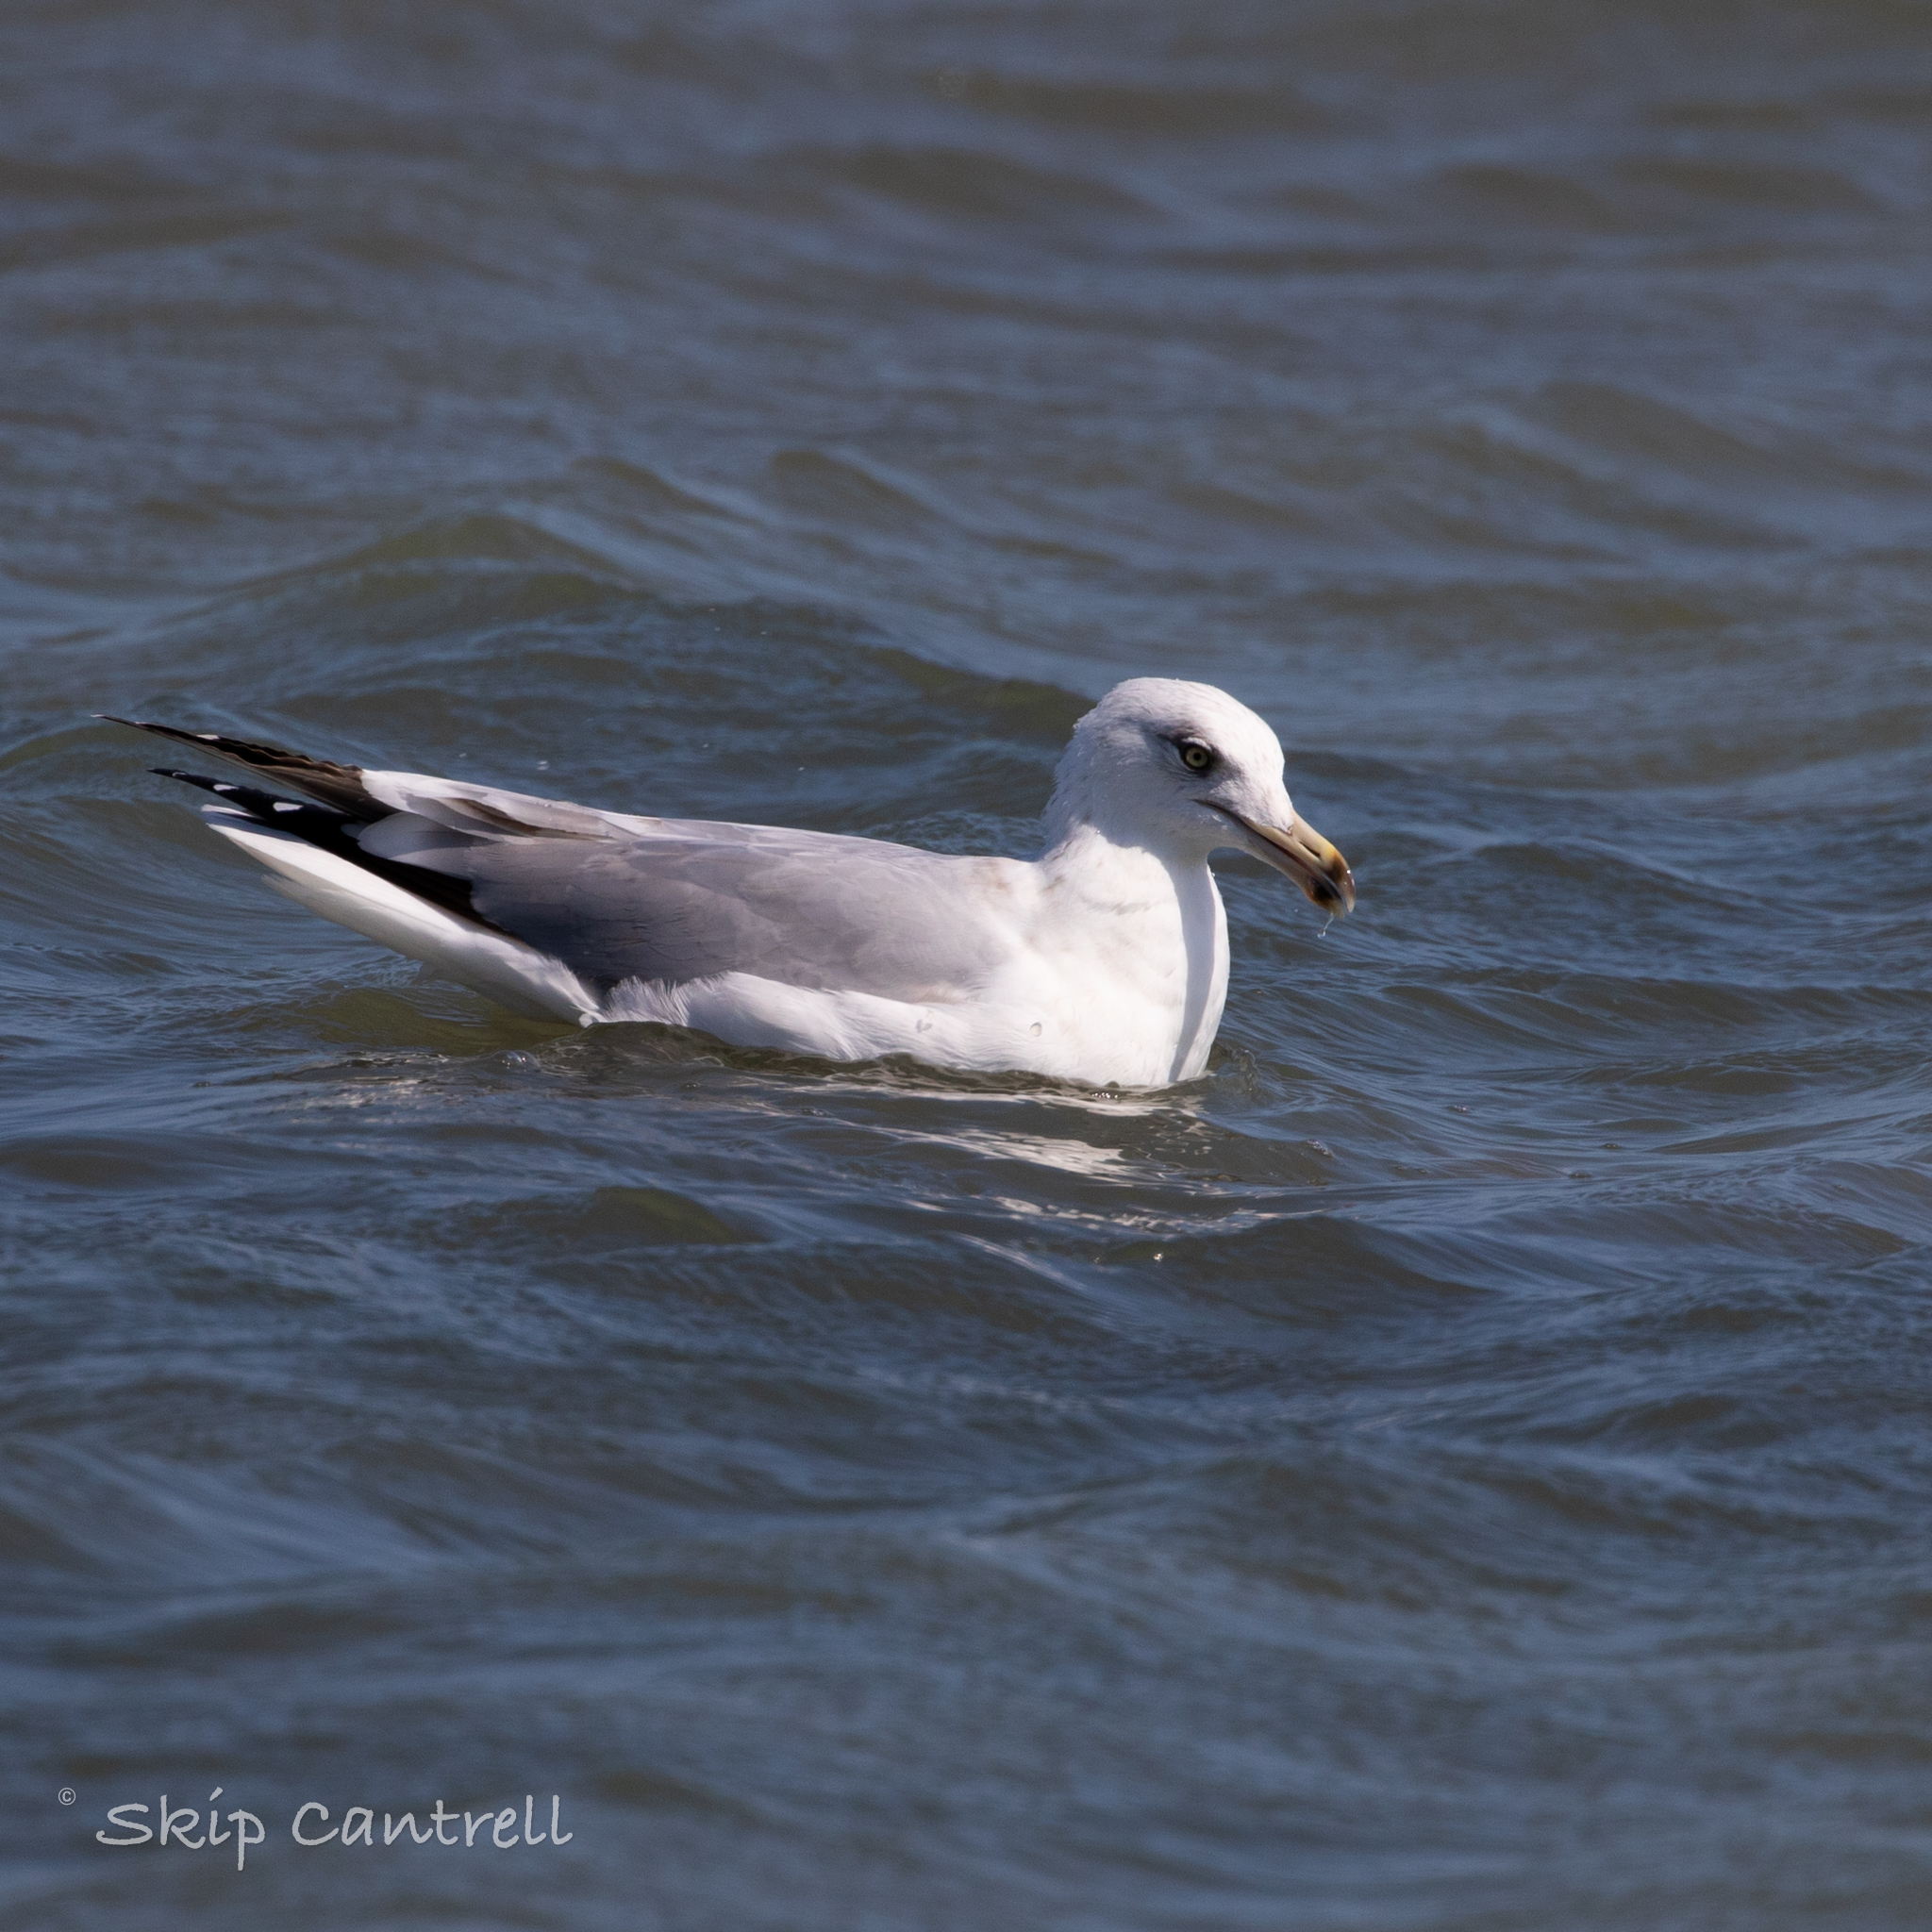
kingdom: Animalia
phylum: Chordata
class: Aves
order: Charadriiformes
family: Laridae
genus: Larus
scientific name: Larus argentatus
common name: Herring gull
